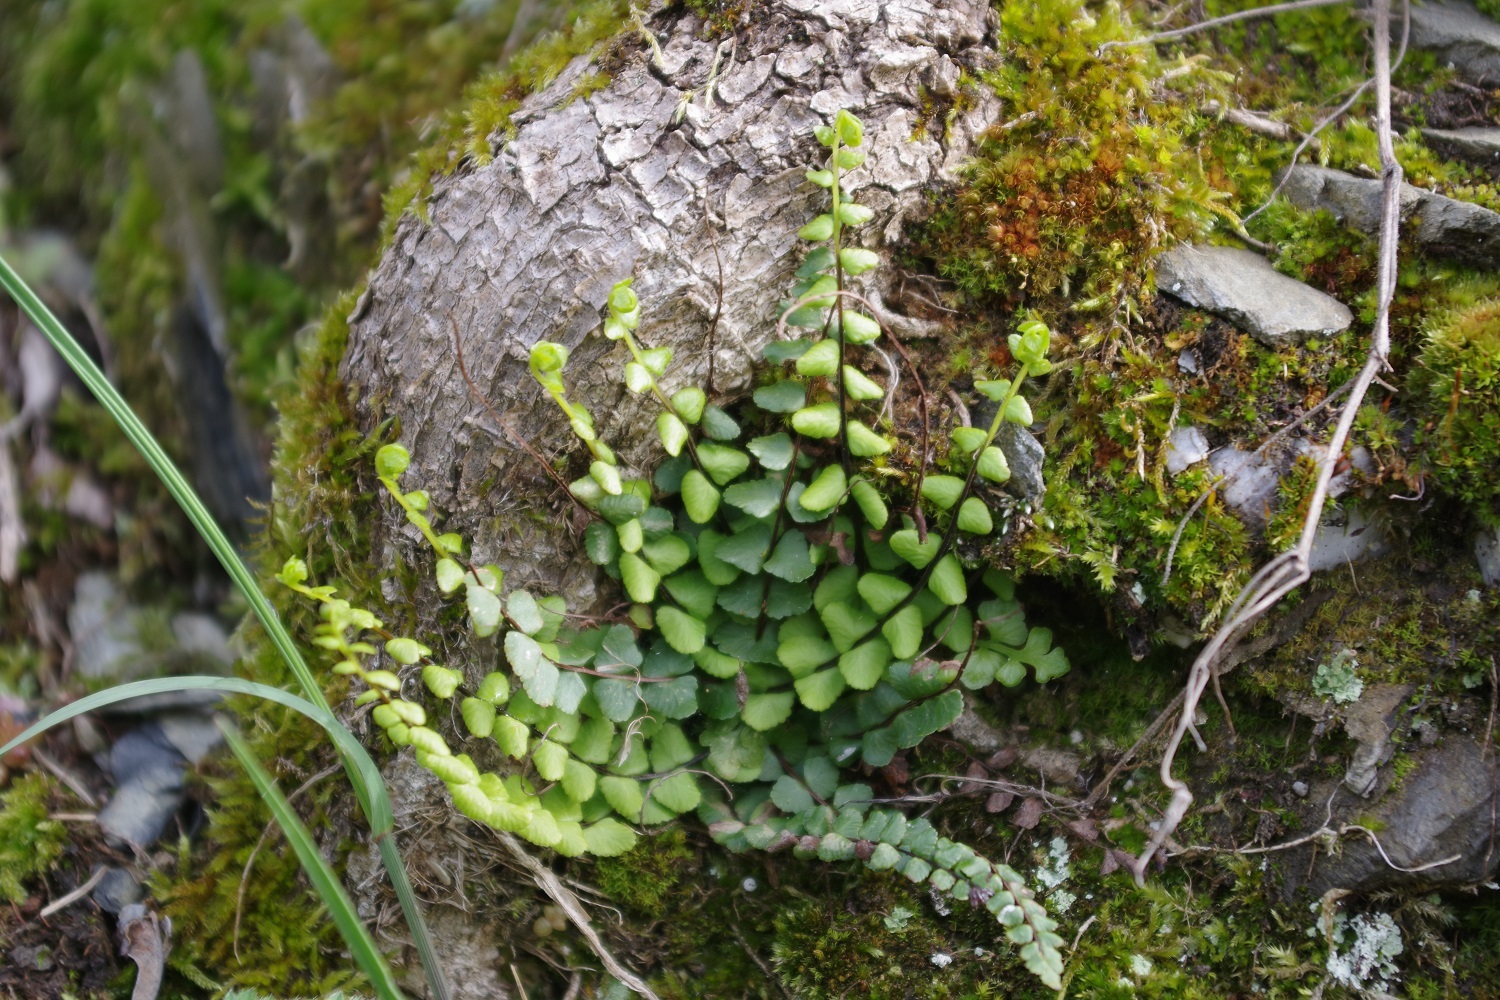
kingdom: Plantae
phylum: Tracheophyta
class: Polypodiopsida
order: Polypodiales
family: Aspleniaceae
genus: Asplenium
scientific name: Asplenium trichomanes
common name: Maidenhair spleenwort
